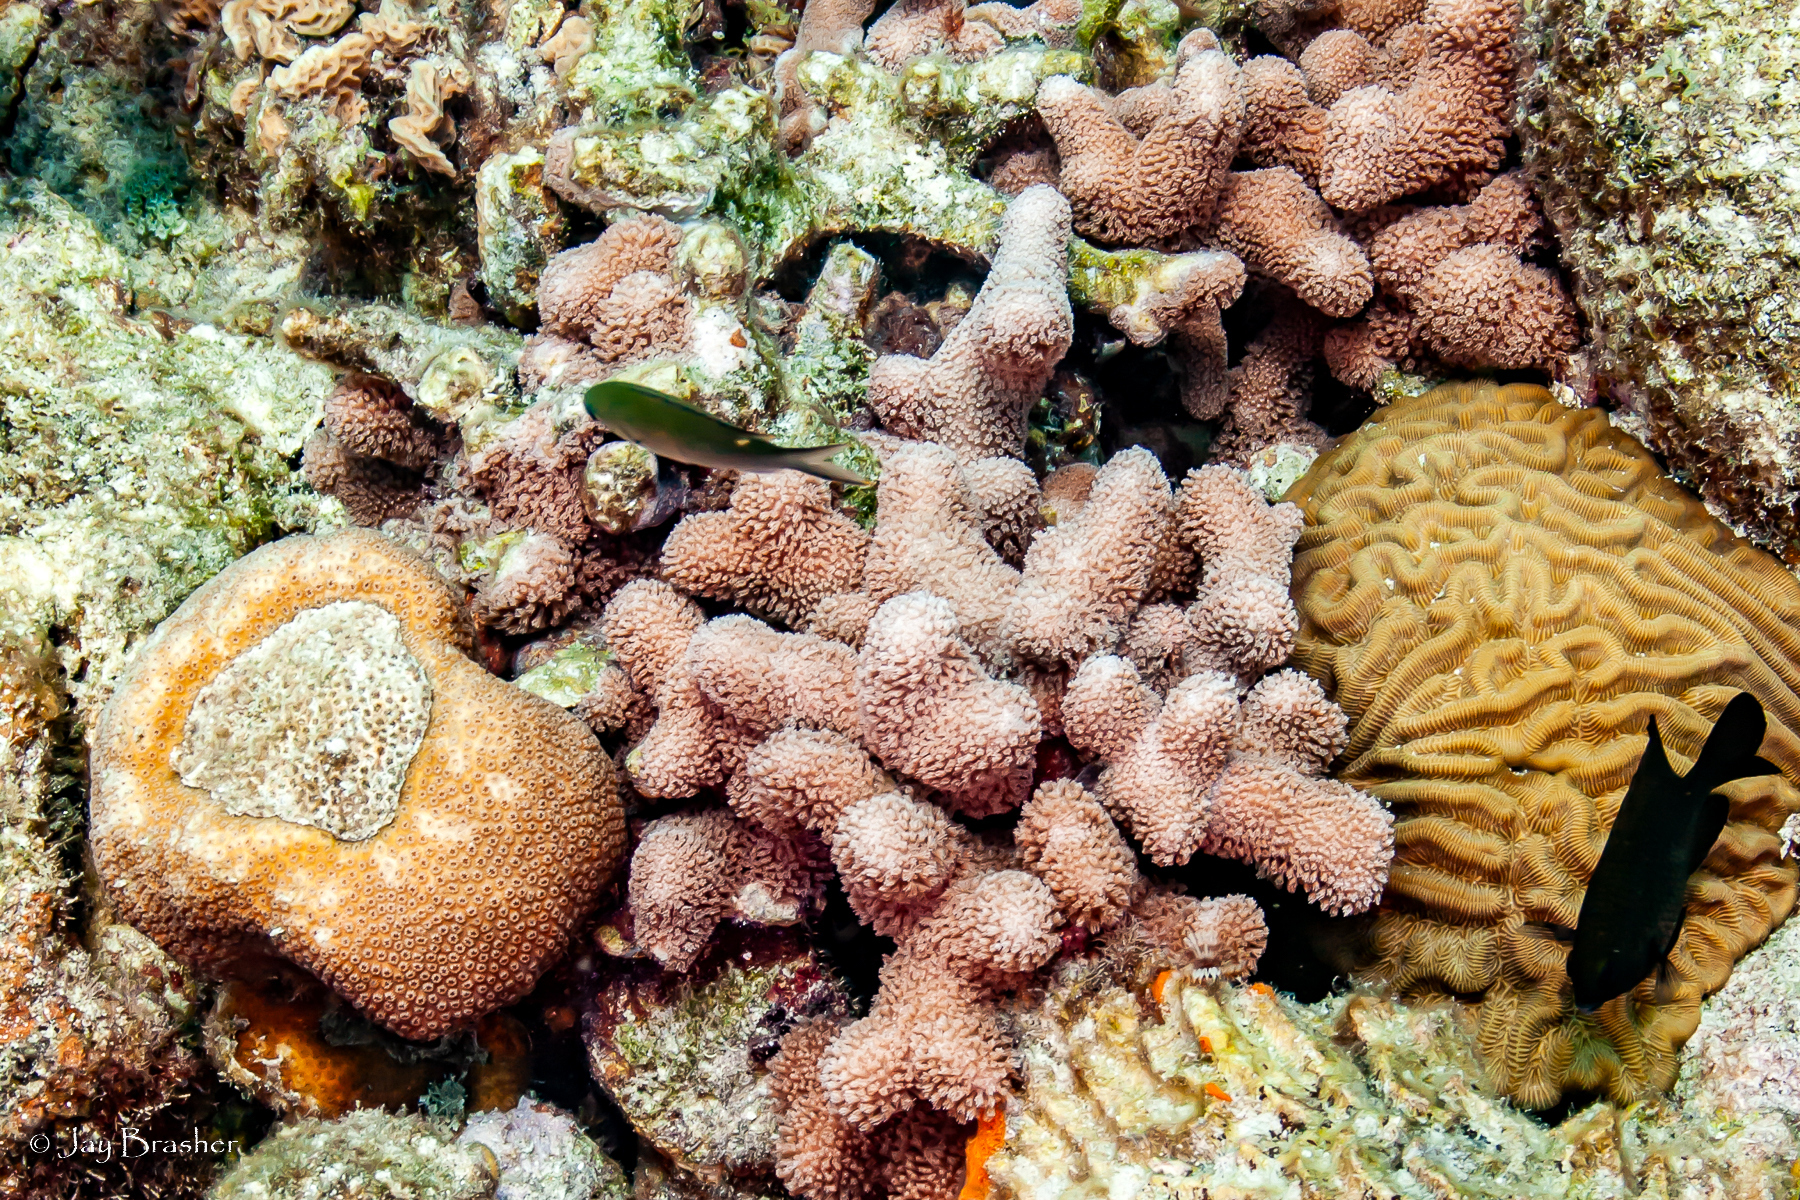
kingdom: Animalia
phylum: Cnidaria
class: Anthozoa
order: Scleractinia
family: Faviidae
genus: Colpophyllia
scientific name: Colpophyllia natans
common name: Boulder brain coral
